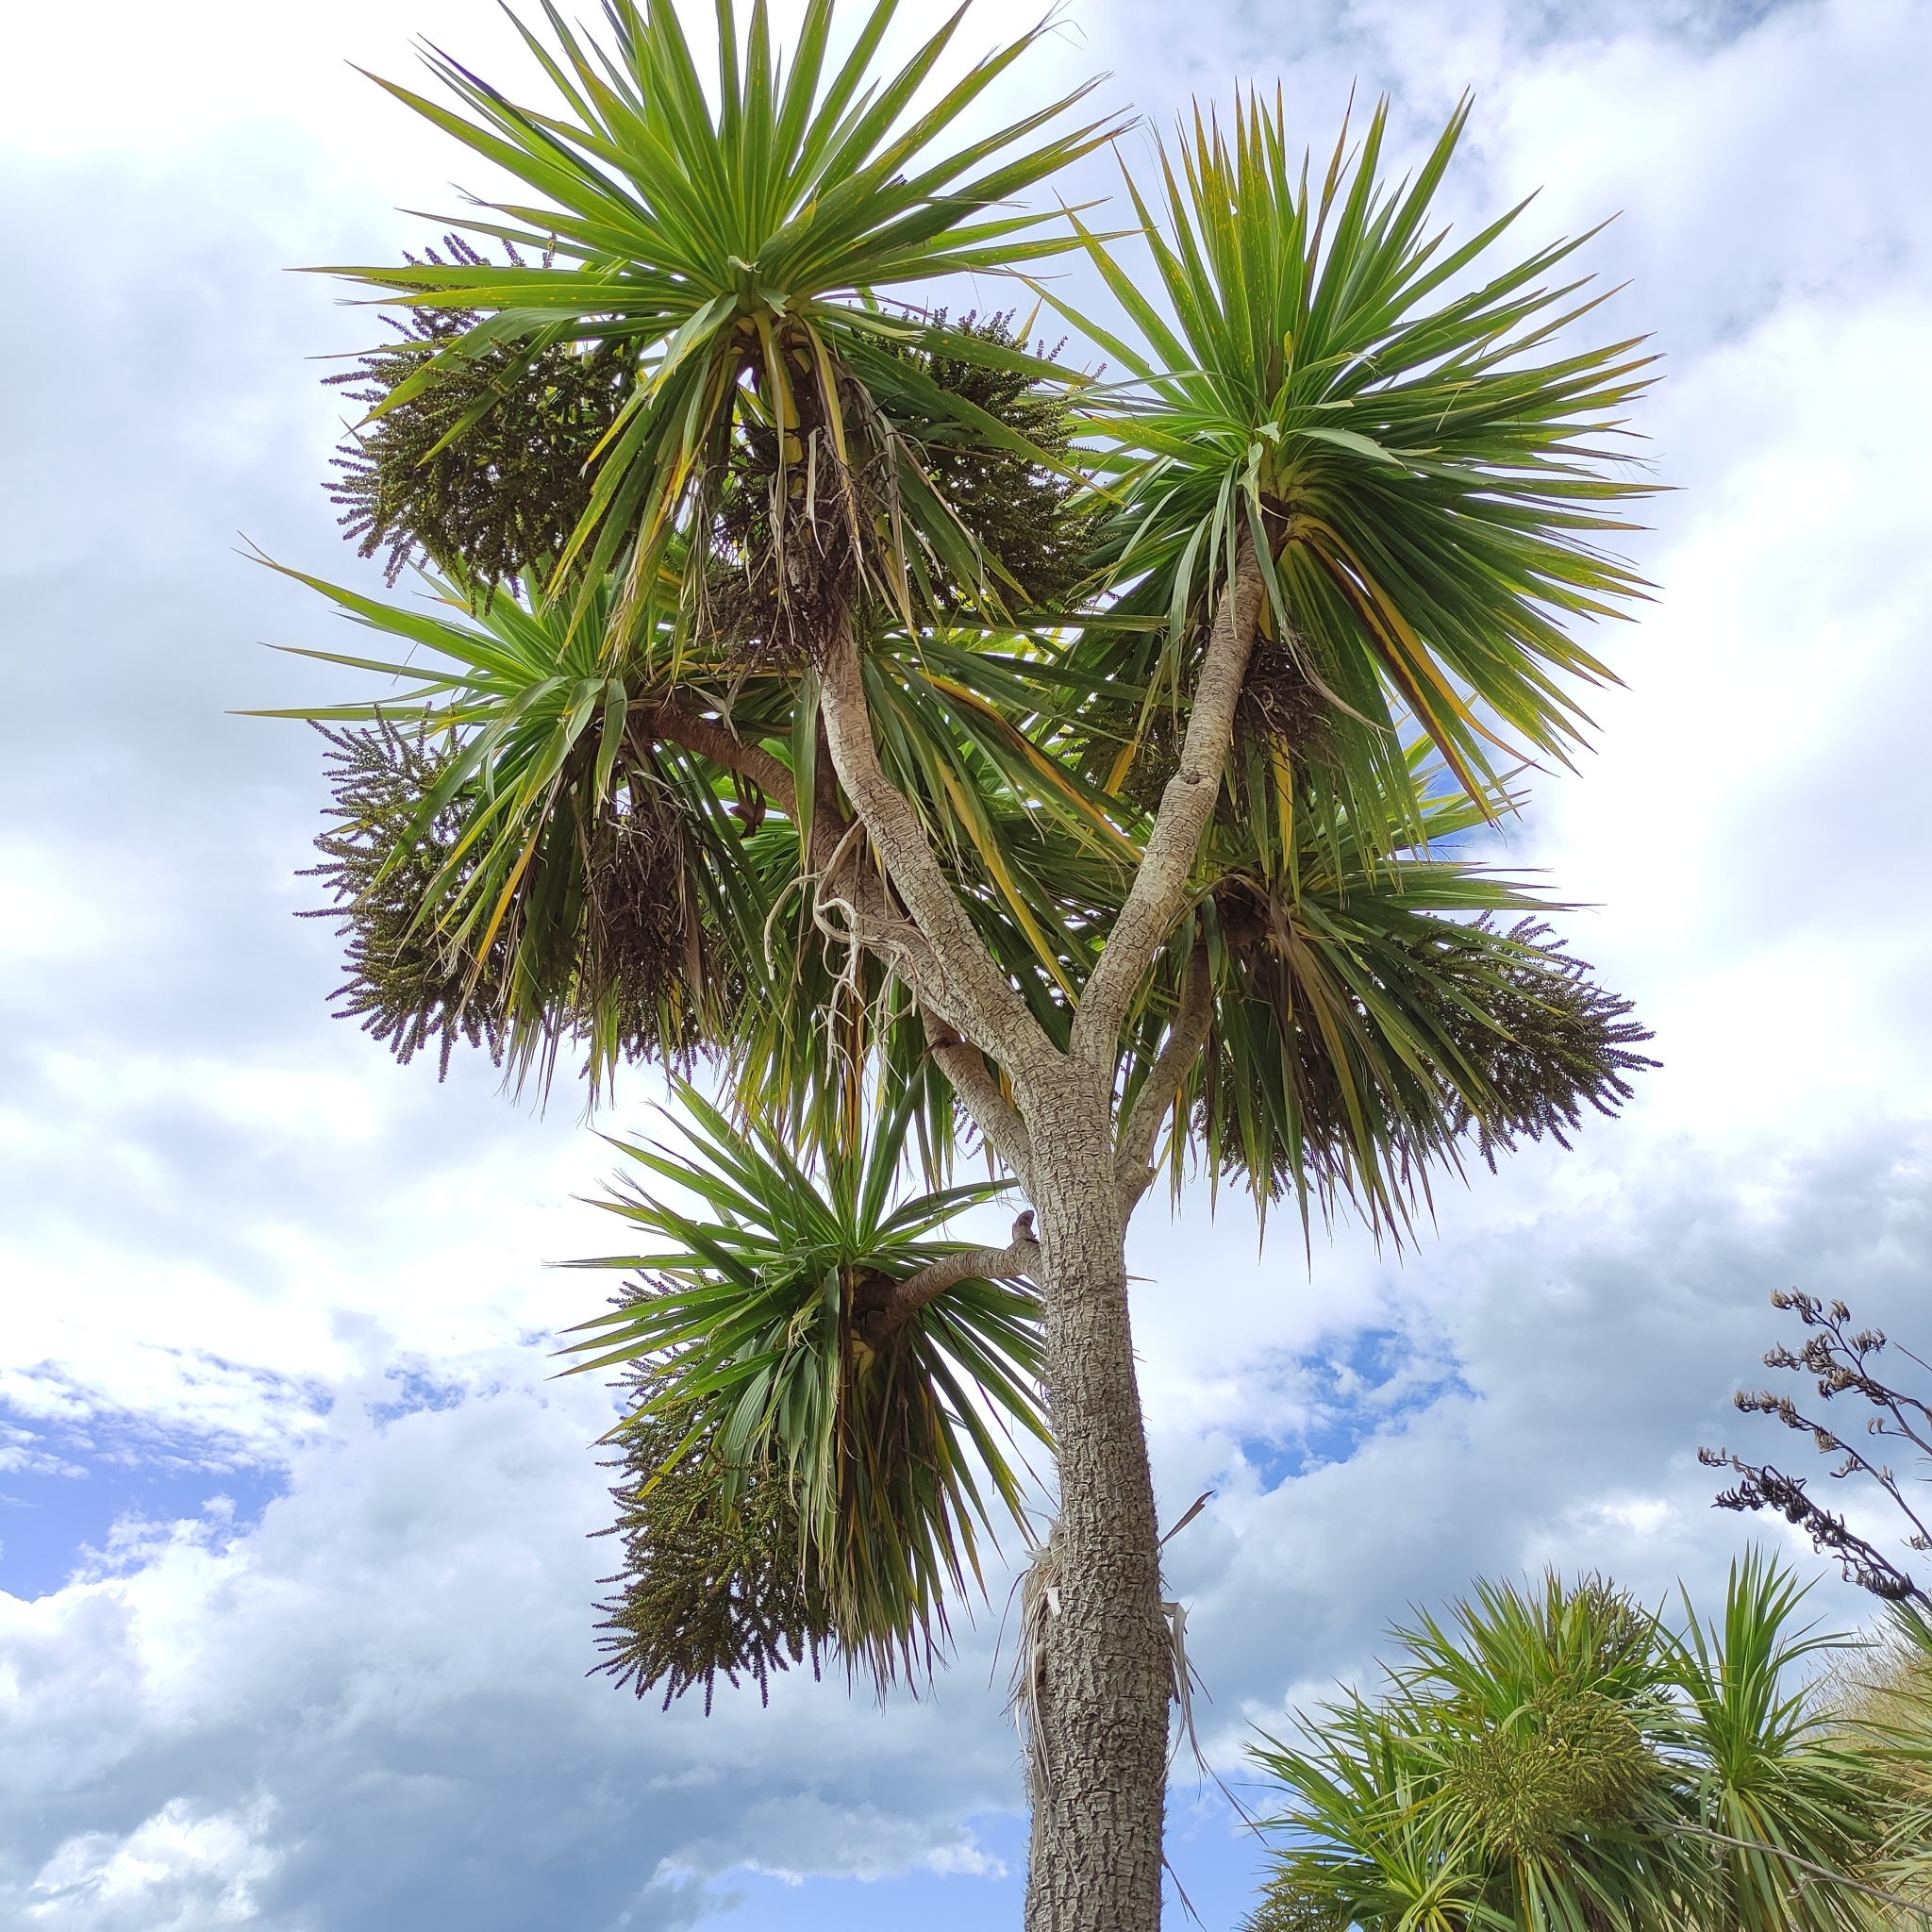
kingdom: Plantae
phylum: Tracheophyta
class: Liliopsida
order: Asparagales
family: Asparagaceae
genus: Cordyline
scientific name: Cordyline australis
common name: Cabbage-palm
